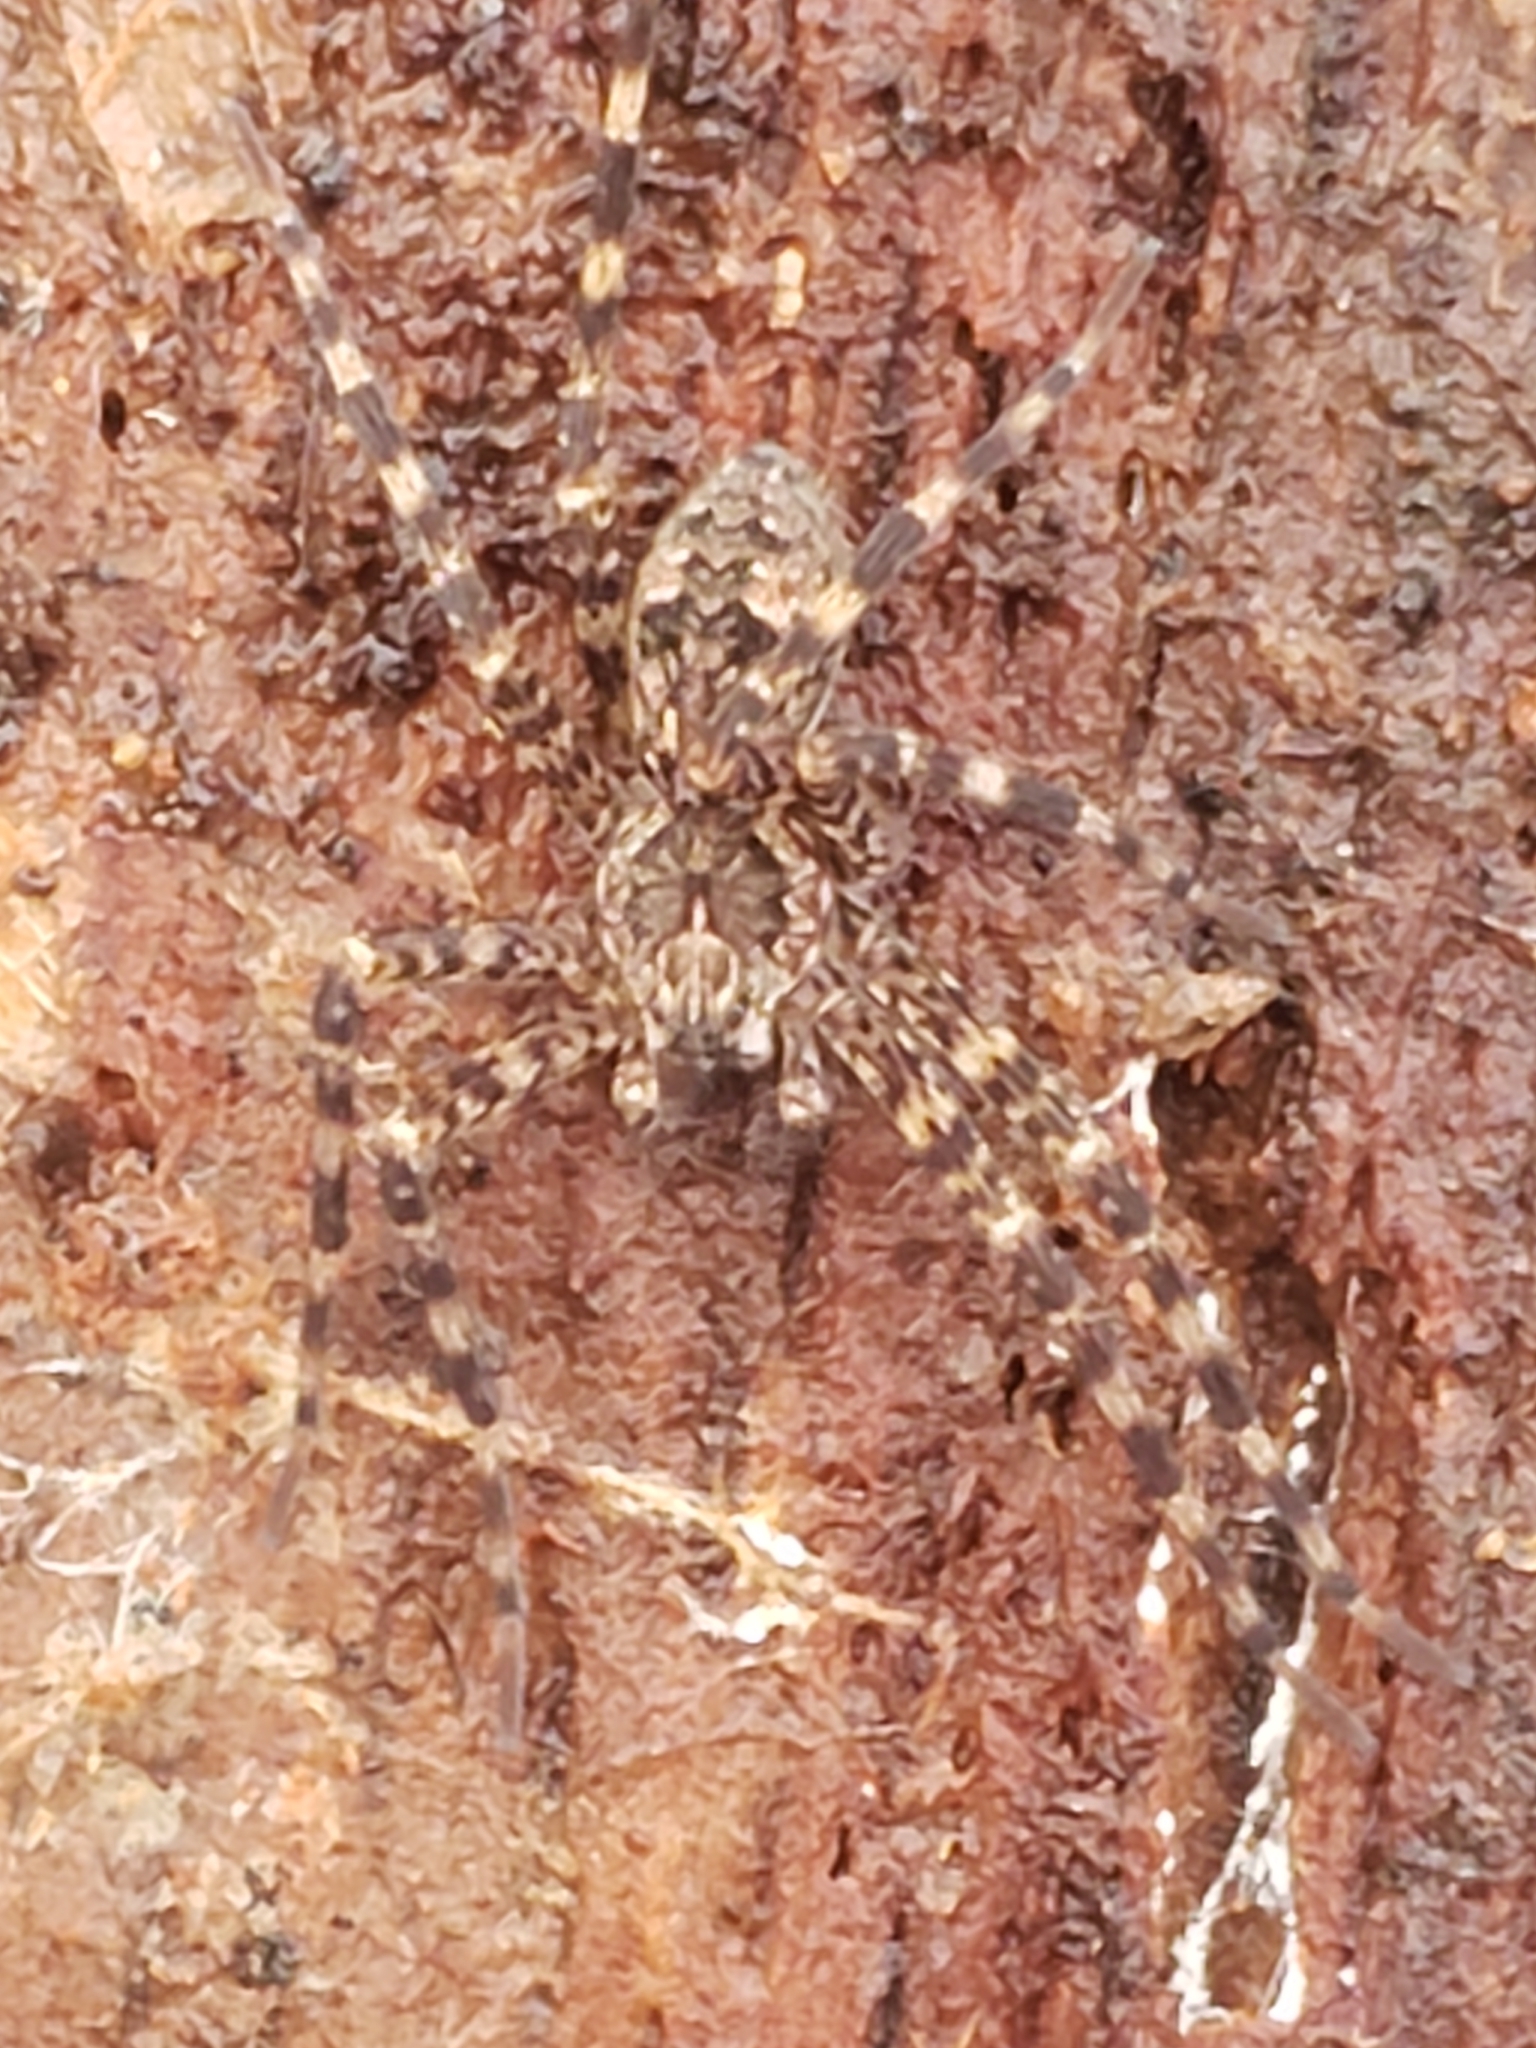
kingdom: Animalia
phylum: Arthropoda
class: Arachnida
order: Araneae
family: Pisauridae
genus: Dolomedes
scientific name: Dolomedes tenebrosus
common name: Dark fishing spider
